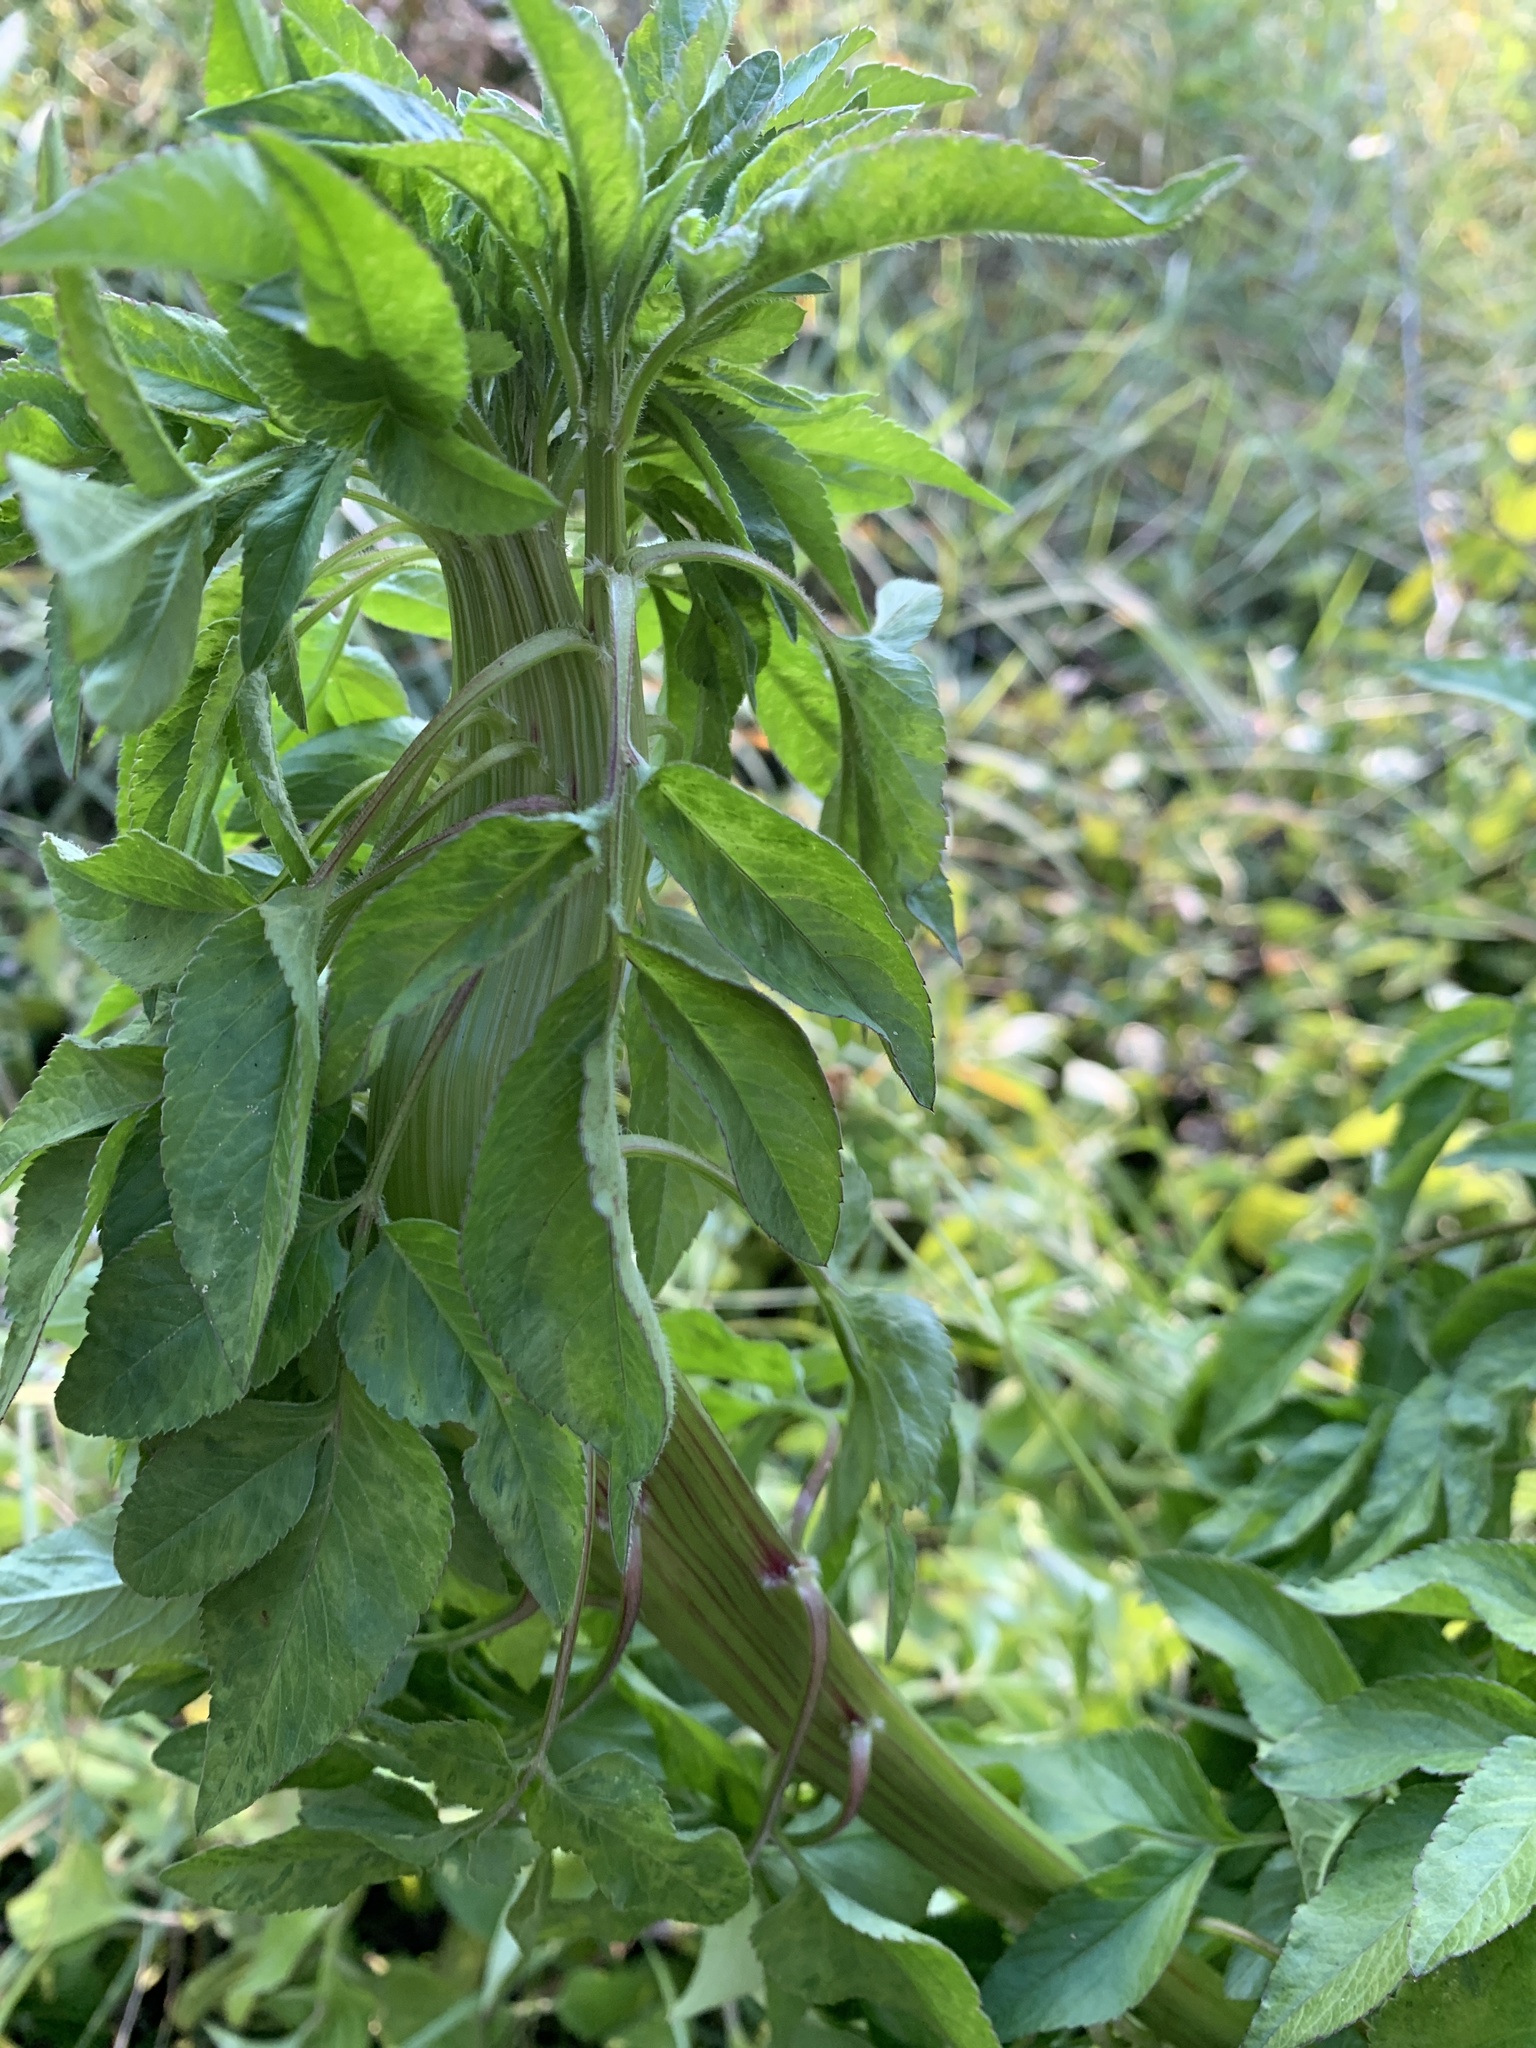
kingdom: Plantae
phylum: Tracheophyta
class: Magnoliopsida
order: Asterales
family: Asteraceae
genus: Bidens
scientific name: Bidens alba
